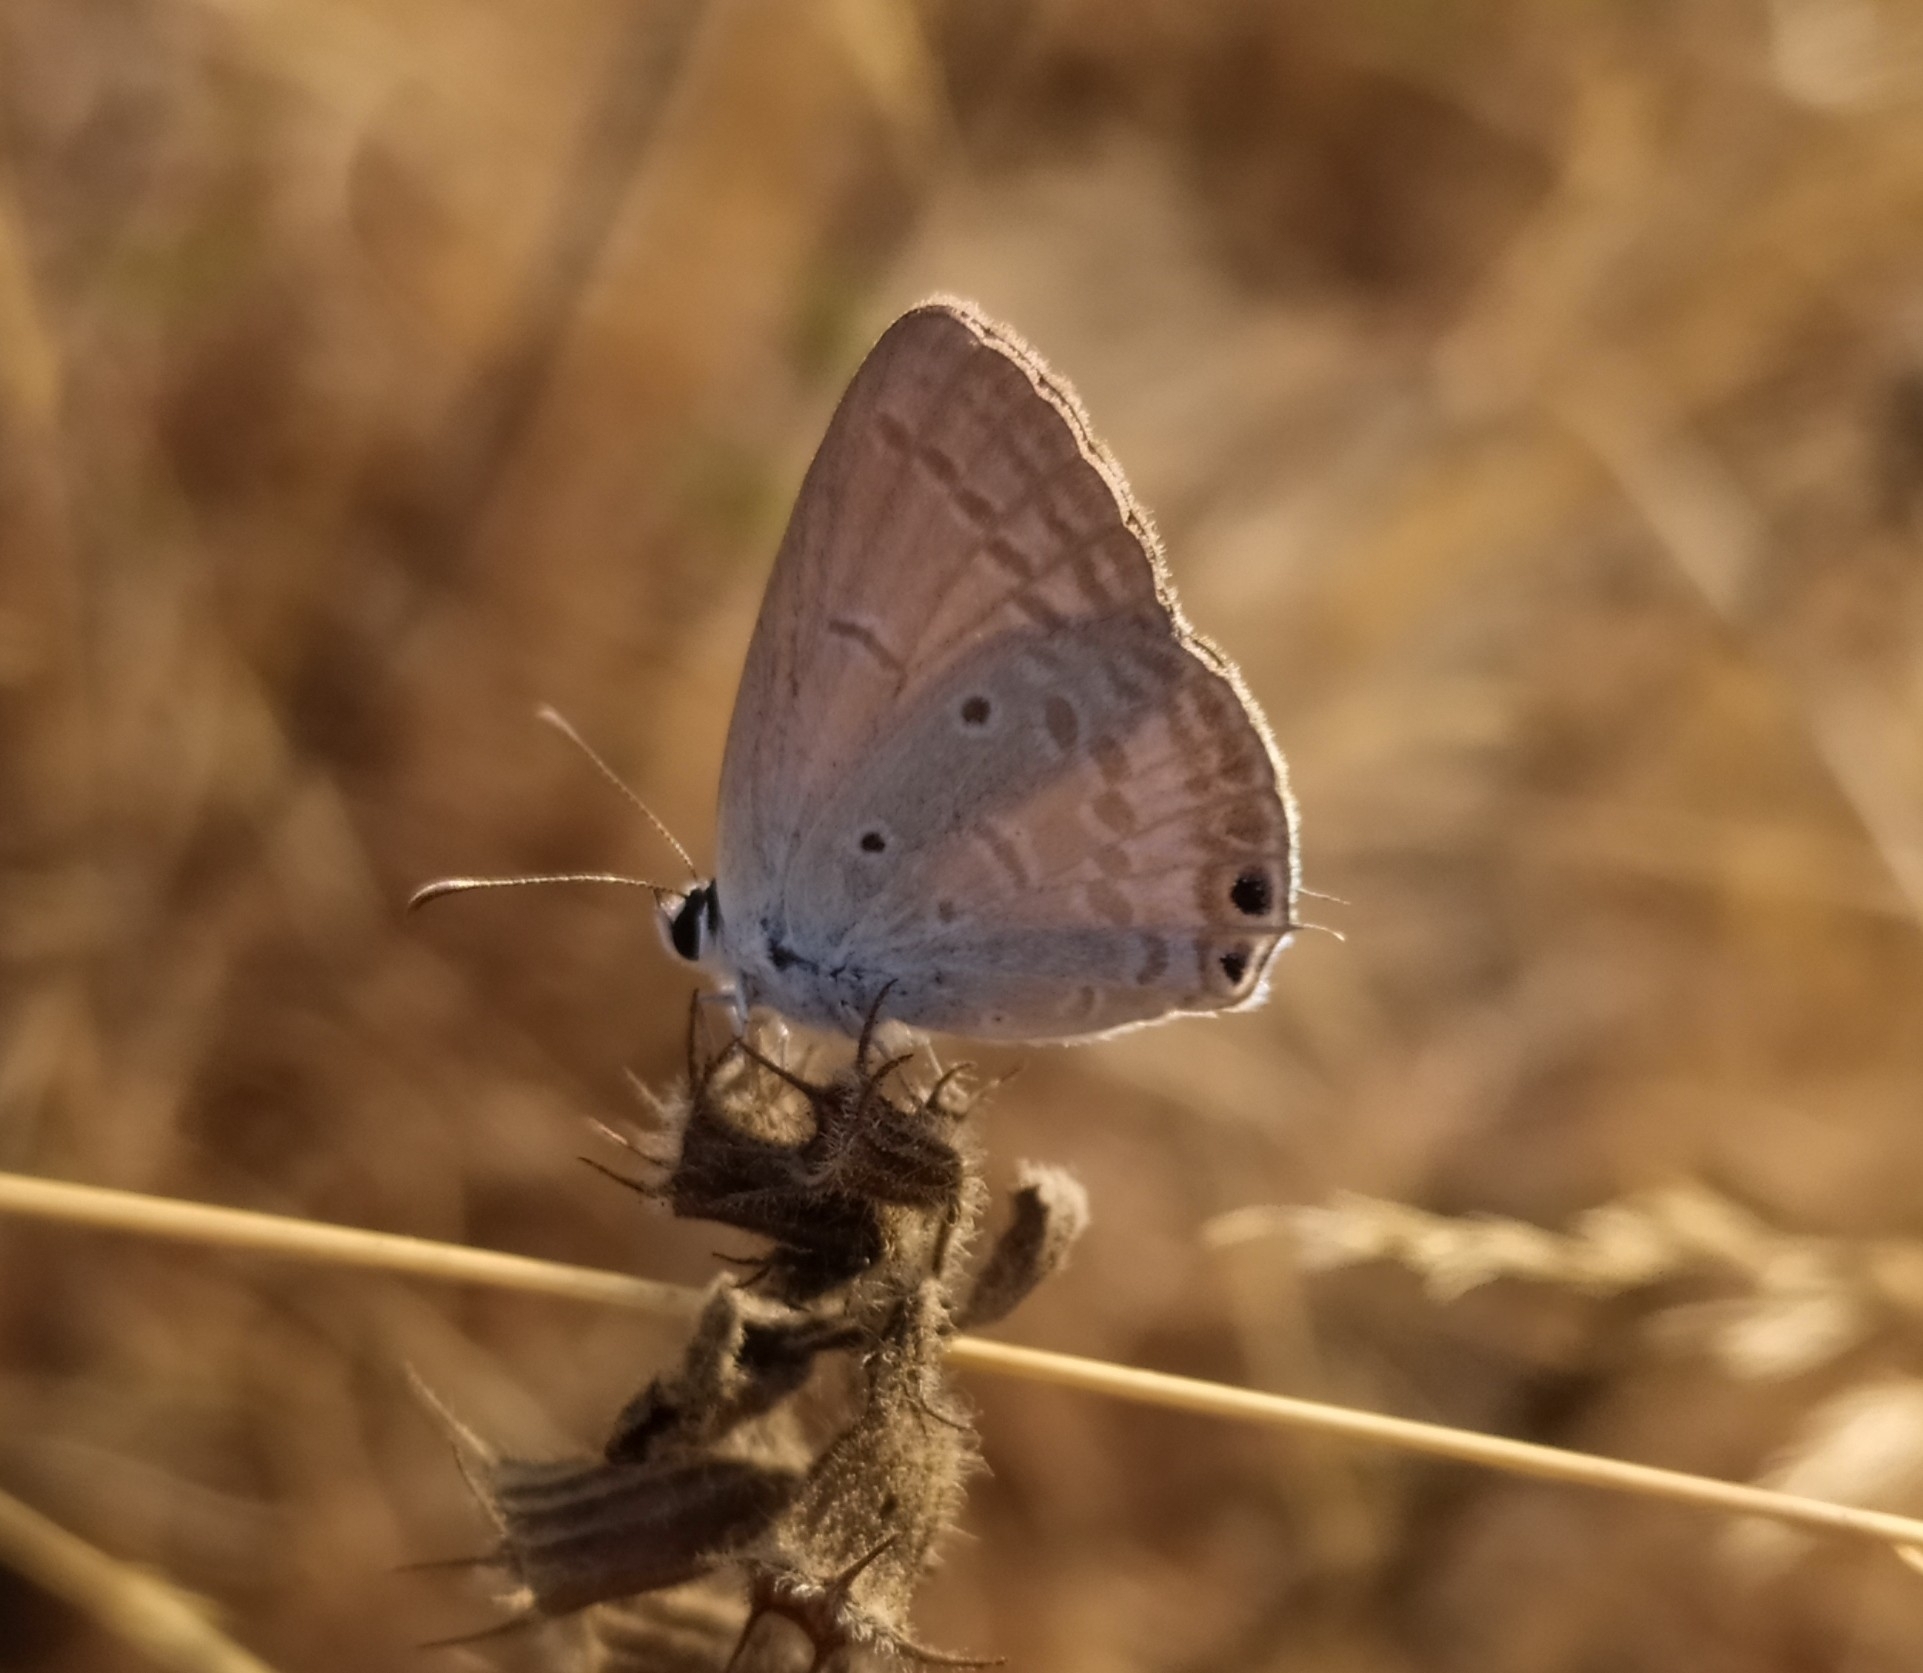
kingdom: Animalia
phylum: Arthropoda
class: Insecta
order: Lepidoptera
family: Lycaenidae
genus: Euchrysops
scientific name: Euchrysops cnejus
